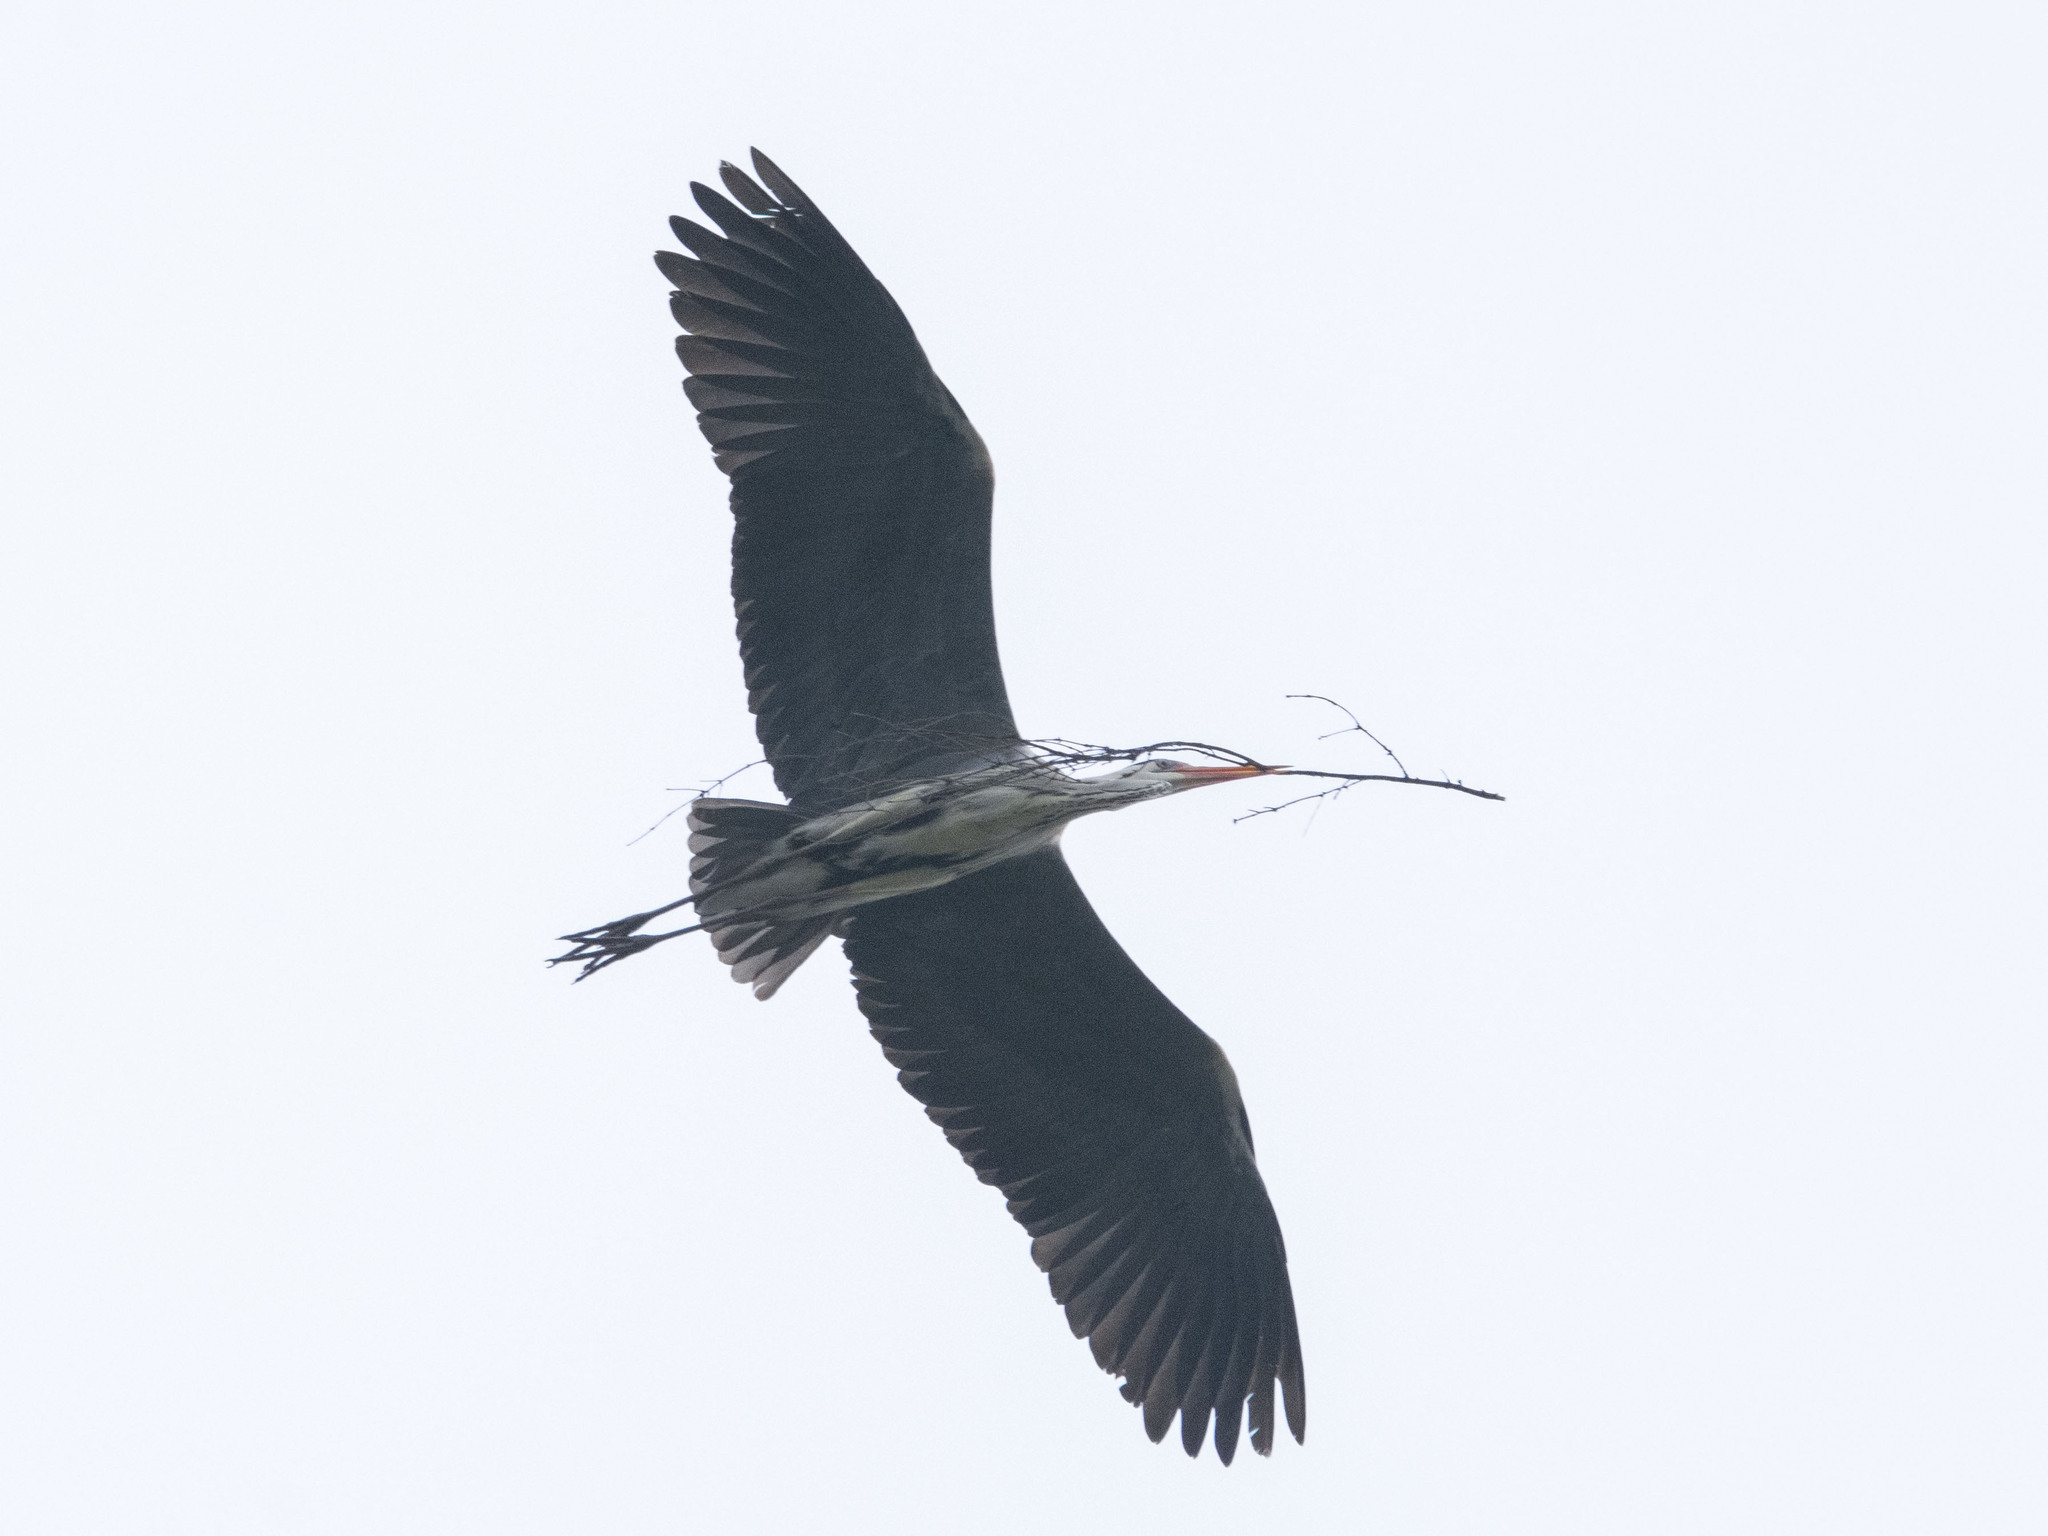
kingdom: Animalia
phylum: Chordata
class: Aves
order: Pelecaniformes
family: Ardeidae
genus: Ardea
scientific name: Ardea cinerea
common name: Grey heron
